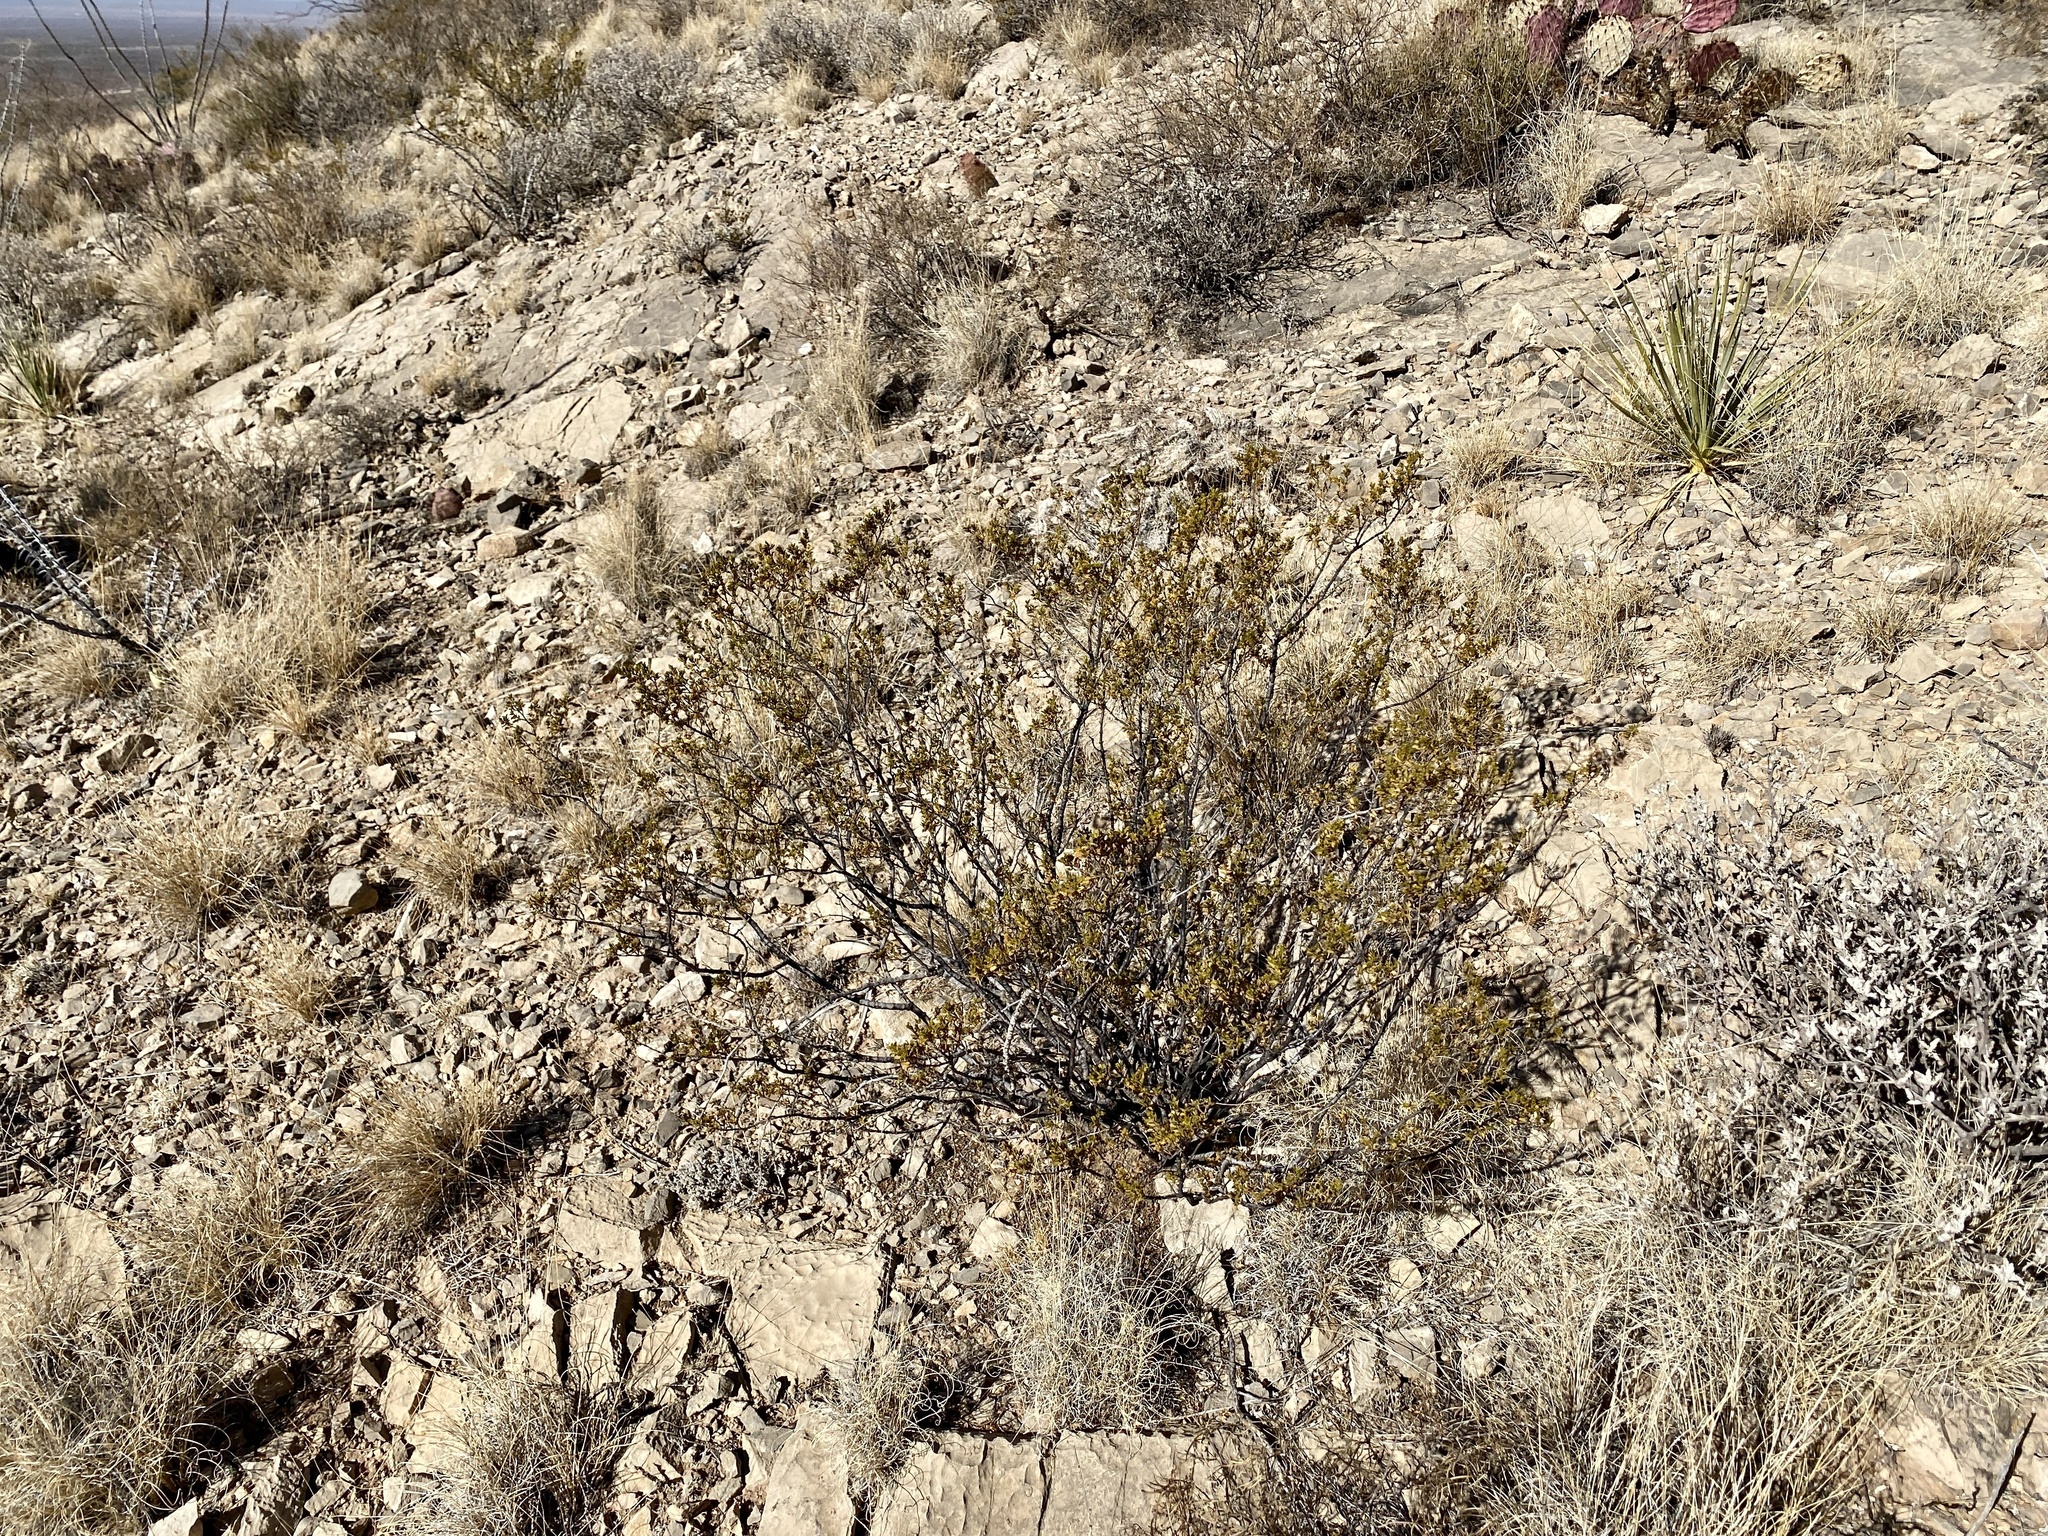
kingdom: Plantae
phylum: Tracheophyta
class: Magnoliopsida
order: Zygophyllales
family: Zygophyllaceae
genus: Larrea
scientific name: Larrea tridentata
